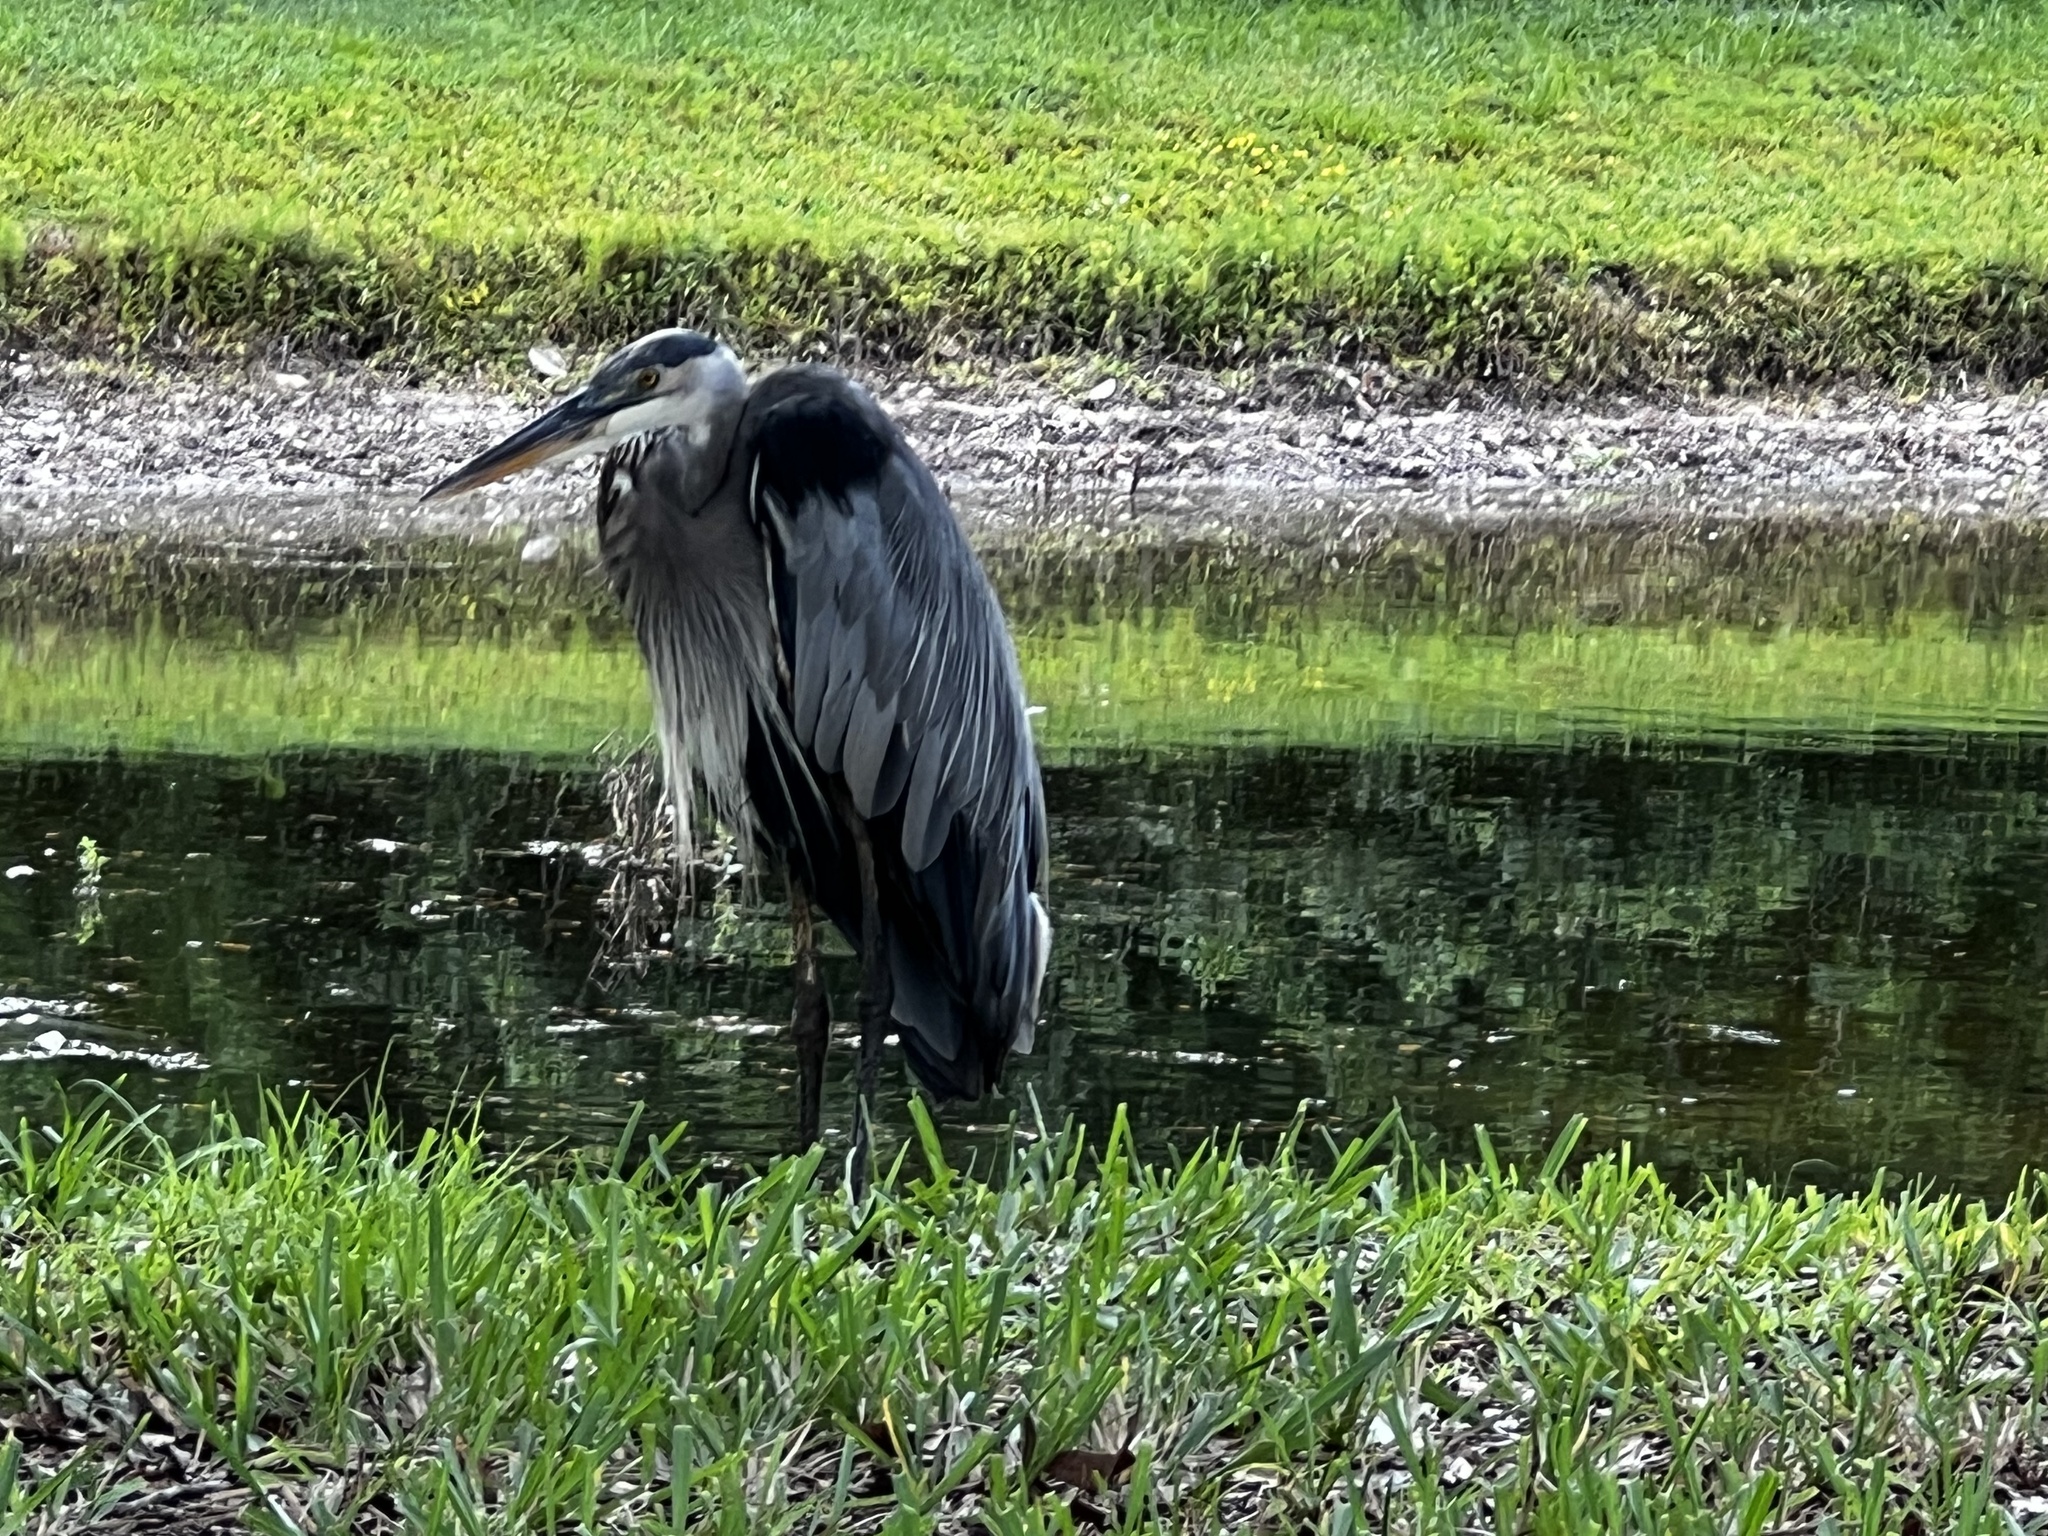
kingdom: Animalia
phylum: Chordata
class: Aves
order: Pelecaniformes
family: Ardeidae
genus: Ardea
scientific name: Ardea herodias
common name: Great blue heron
